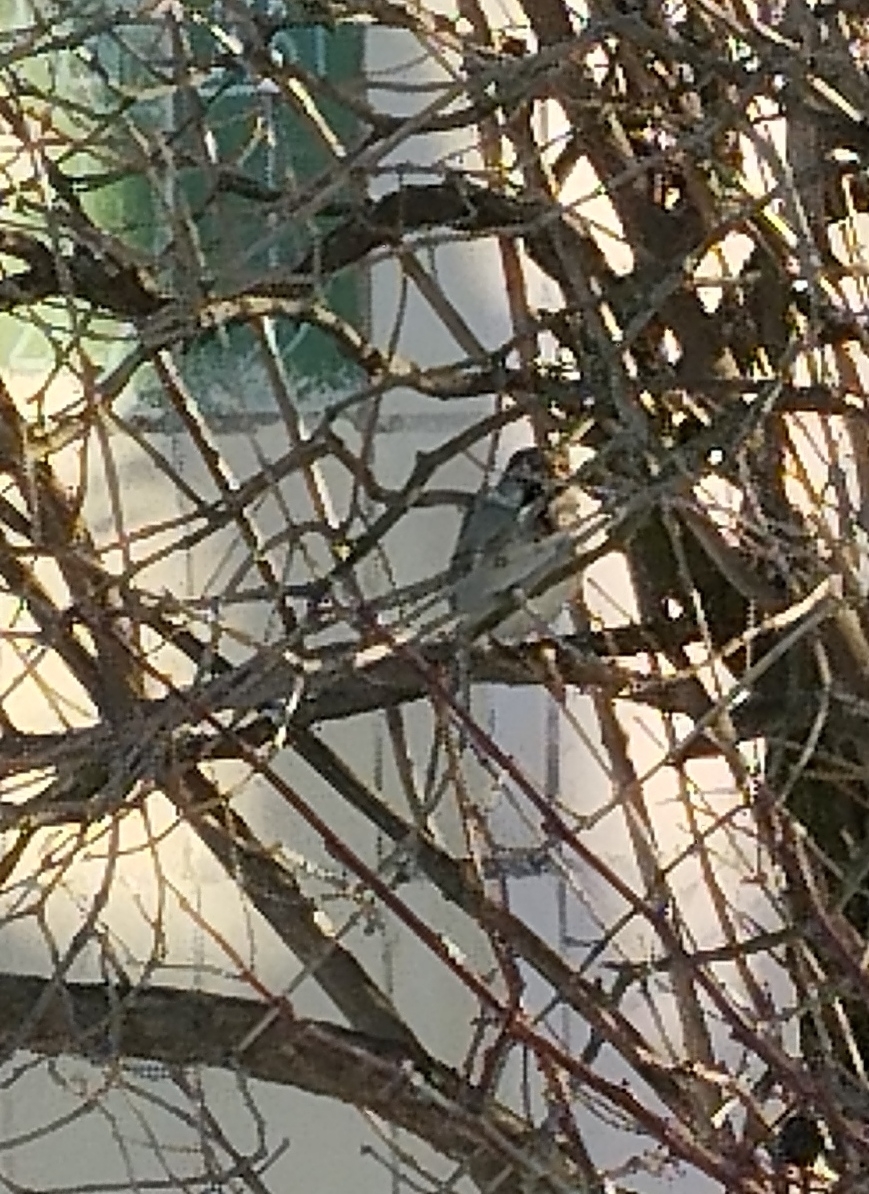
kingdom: Animalia
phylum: Chordata
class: Aves
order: Passeriformes
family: Passeridae
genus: Passer
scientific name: Passer domesticus
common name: House sparrow
